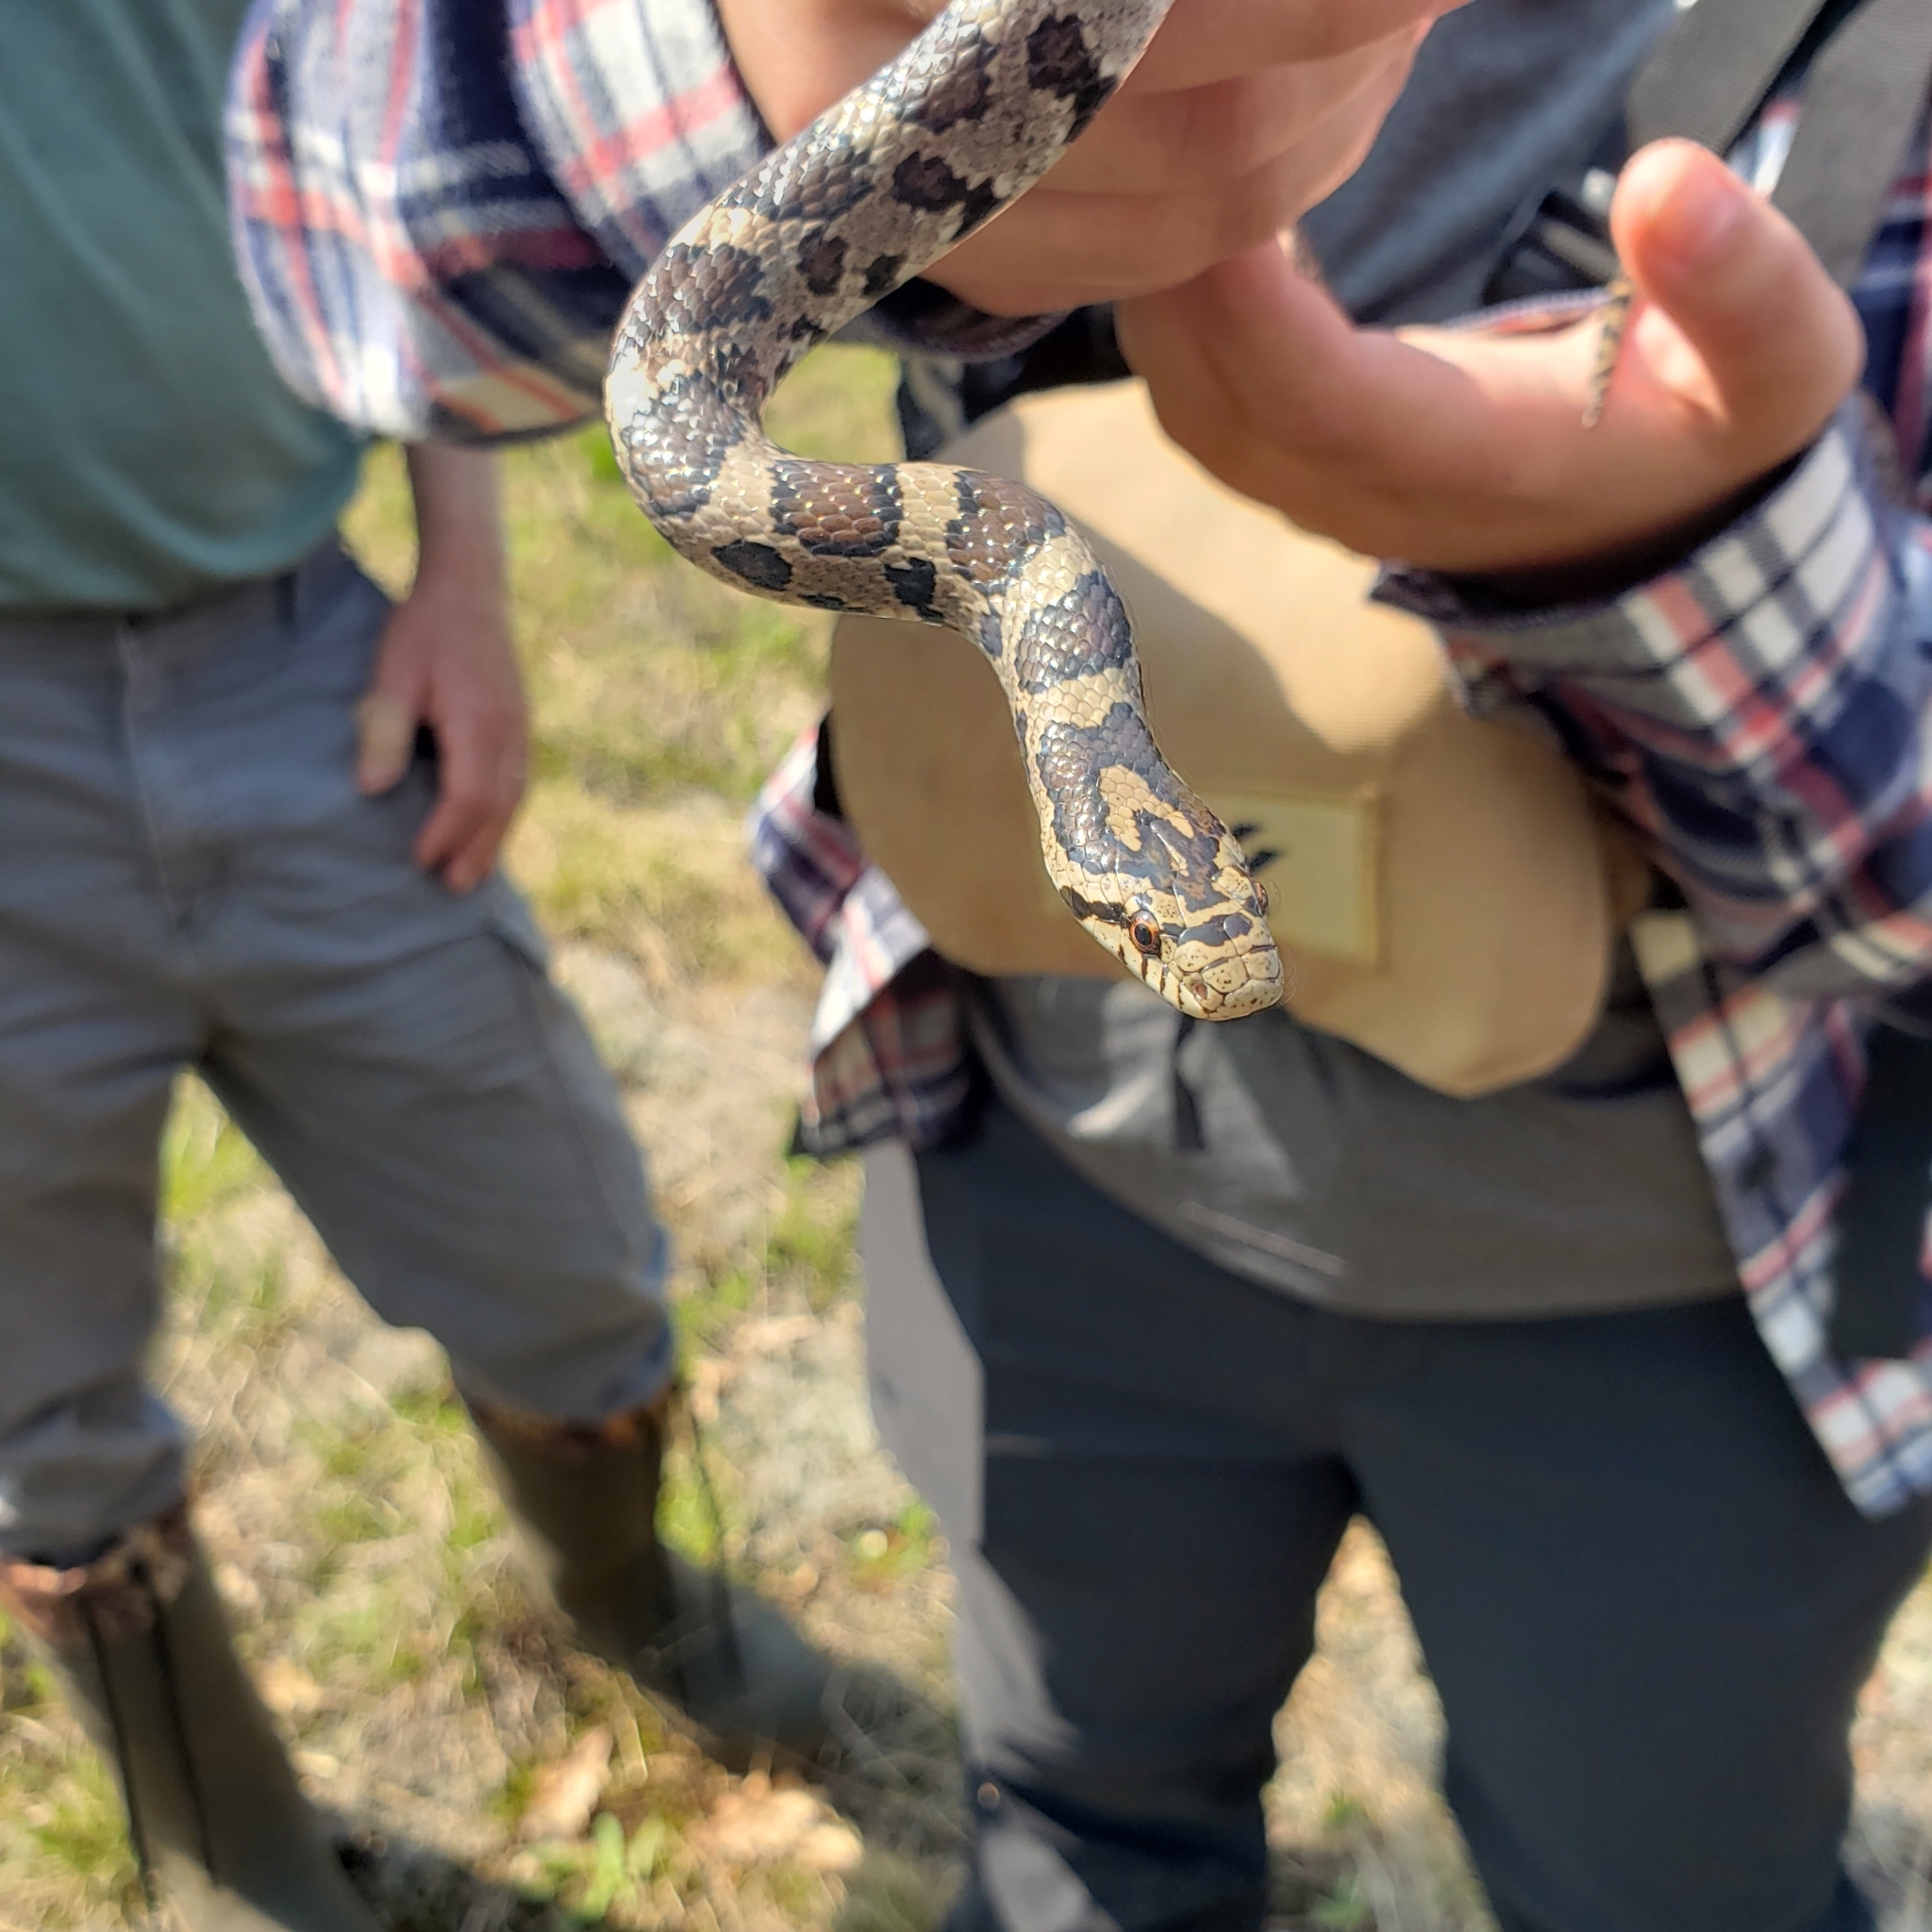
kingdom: Animalia
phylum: Chordata
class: Squamata
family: Colubridae
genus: Lampropeltis
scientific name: Lampropeltis triangulum
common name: Eastern milksnake
